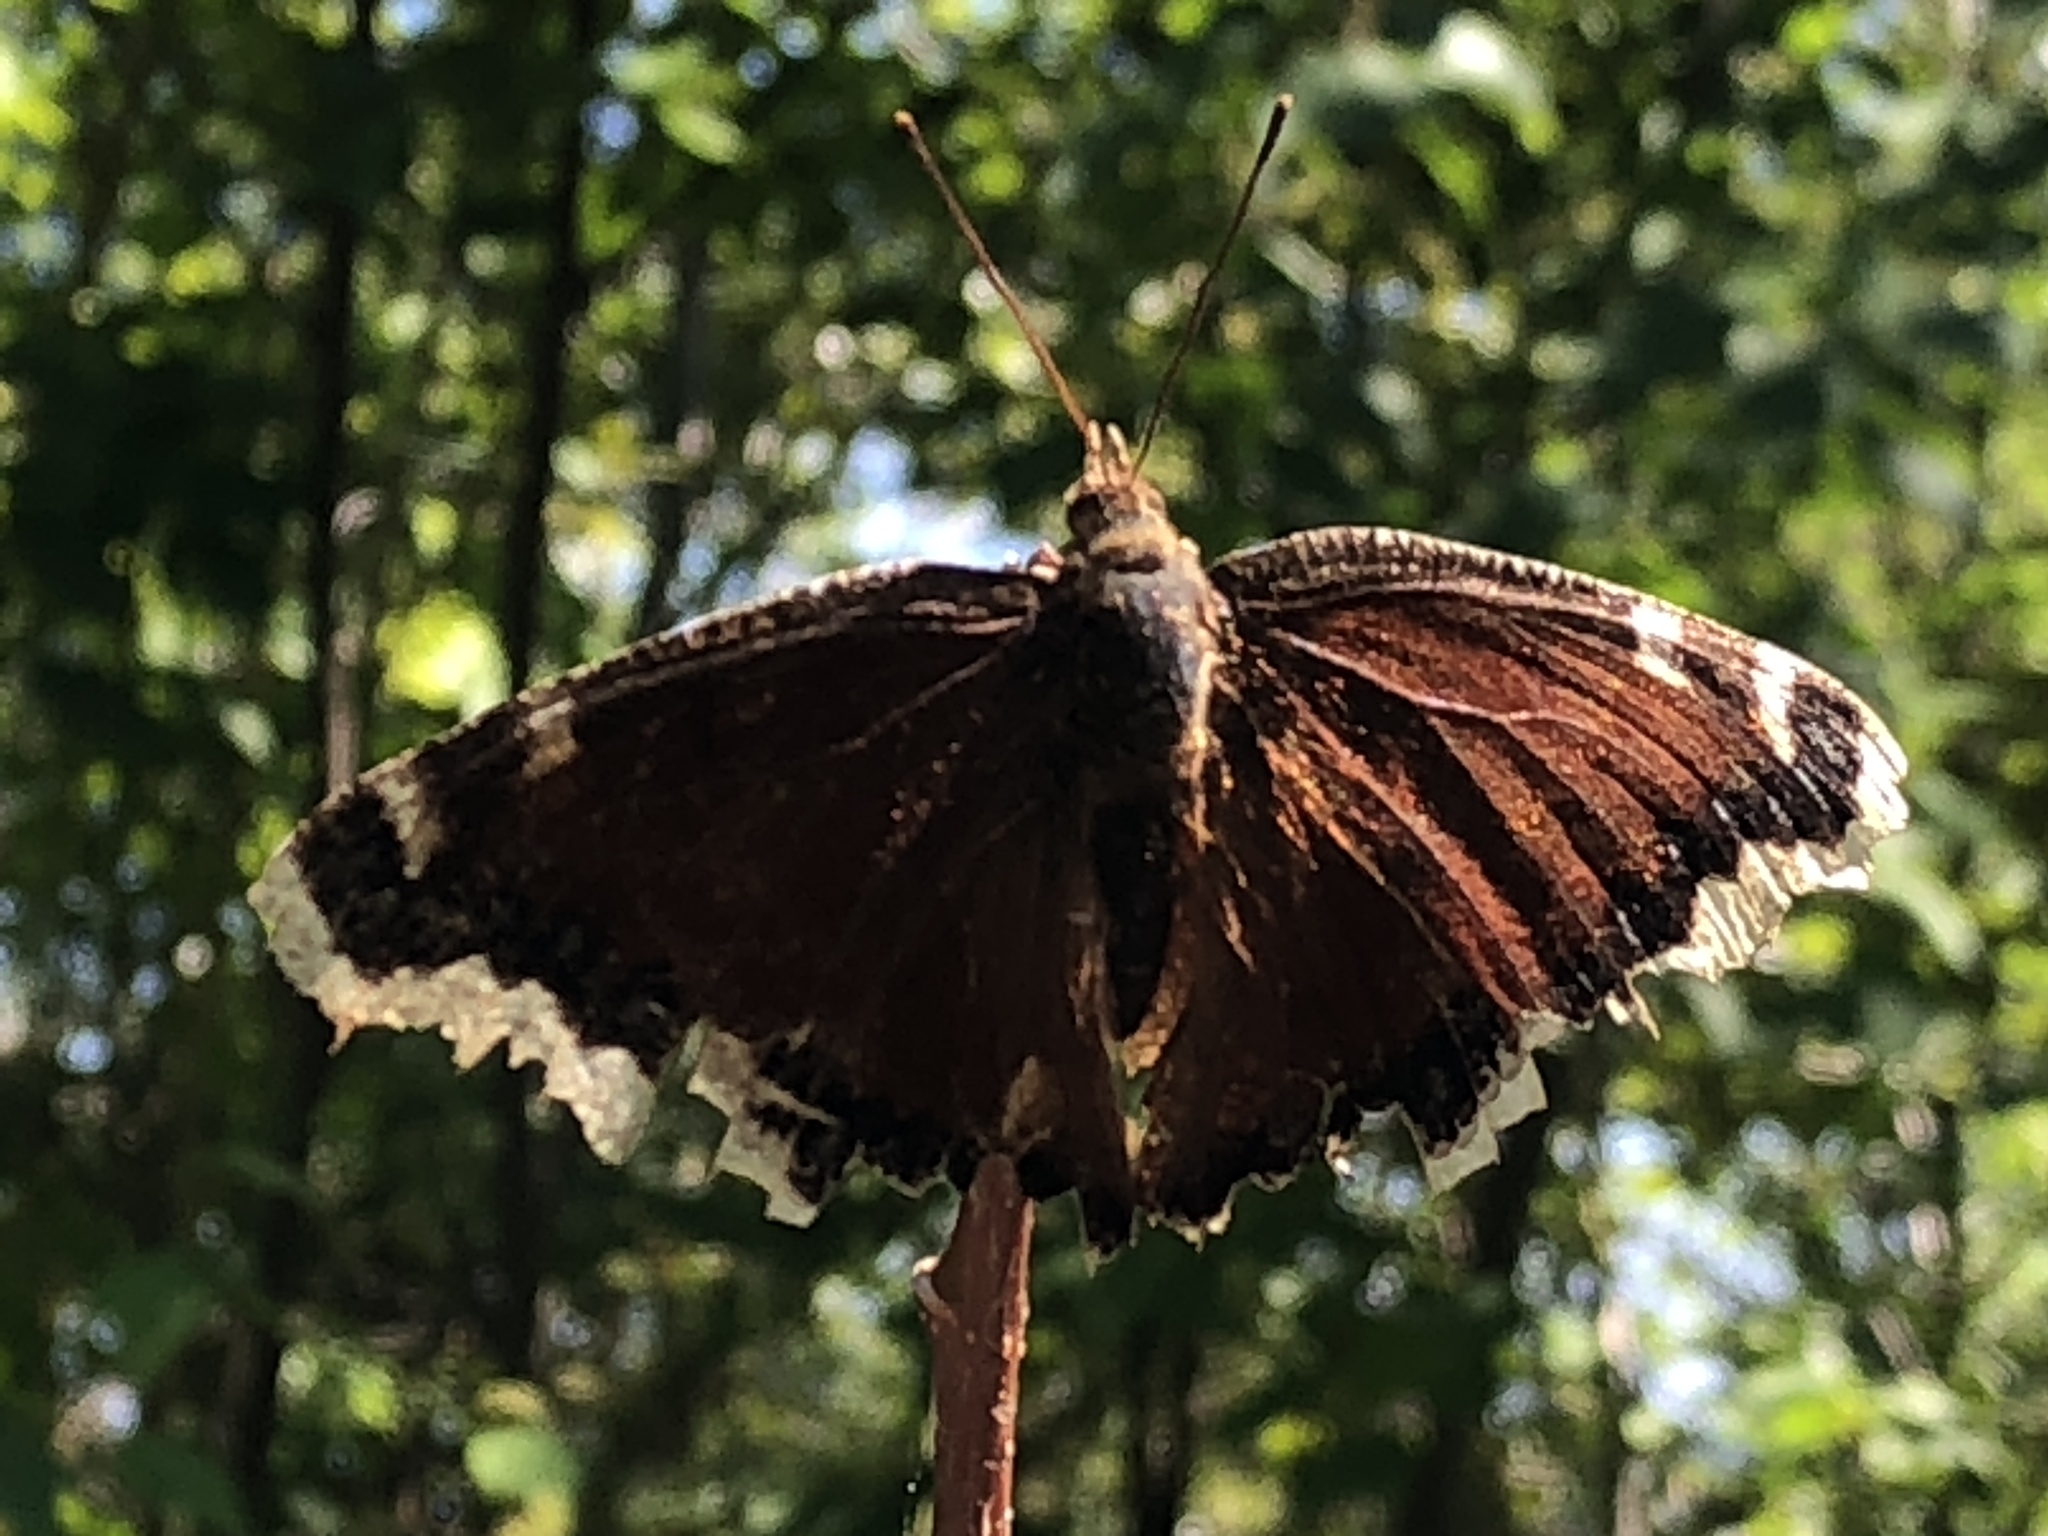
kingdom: Animalia
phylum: Arthropoda
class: Insecta
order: Lepidoptera
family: Nymphalidae
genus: Nymphalis
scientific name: Nymphalis antiopa
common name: Camberwell beauty
